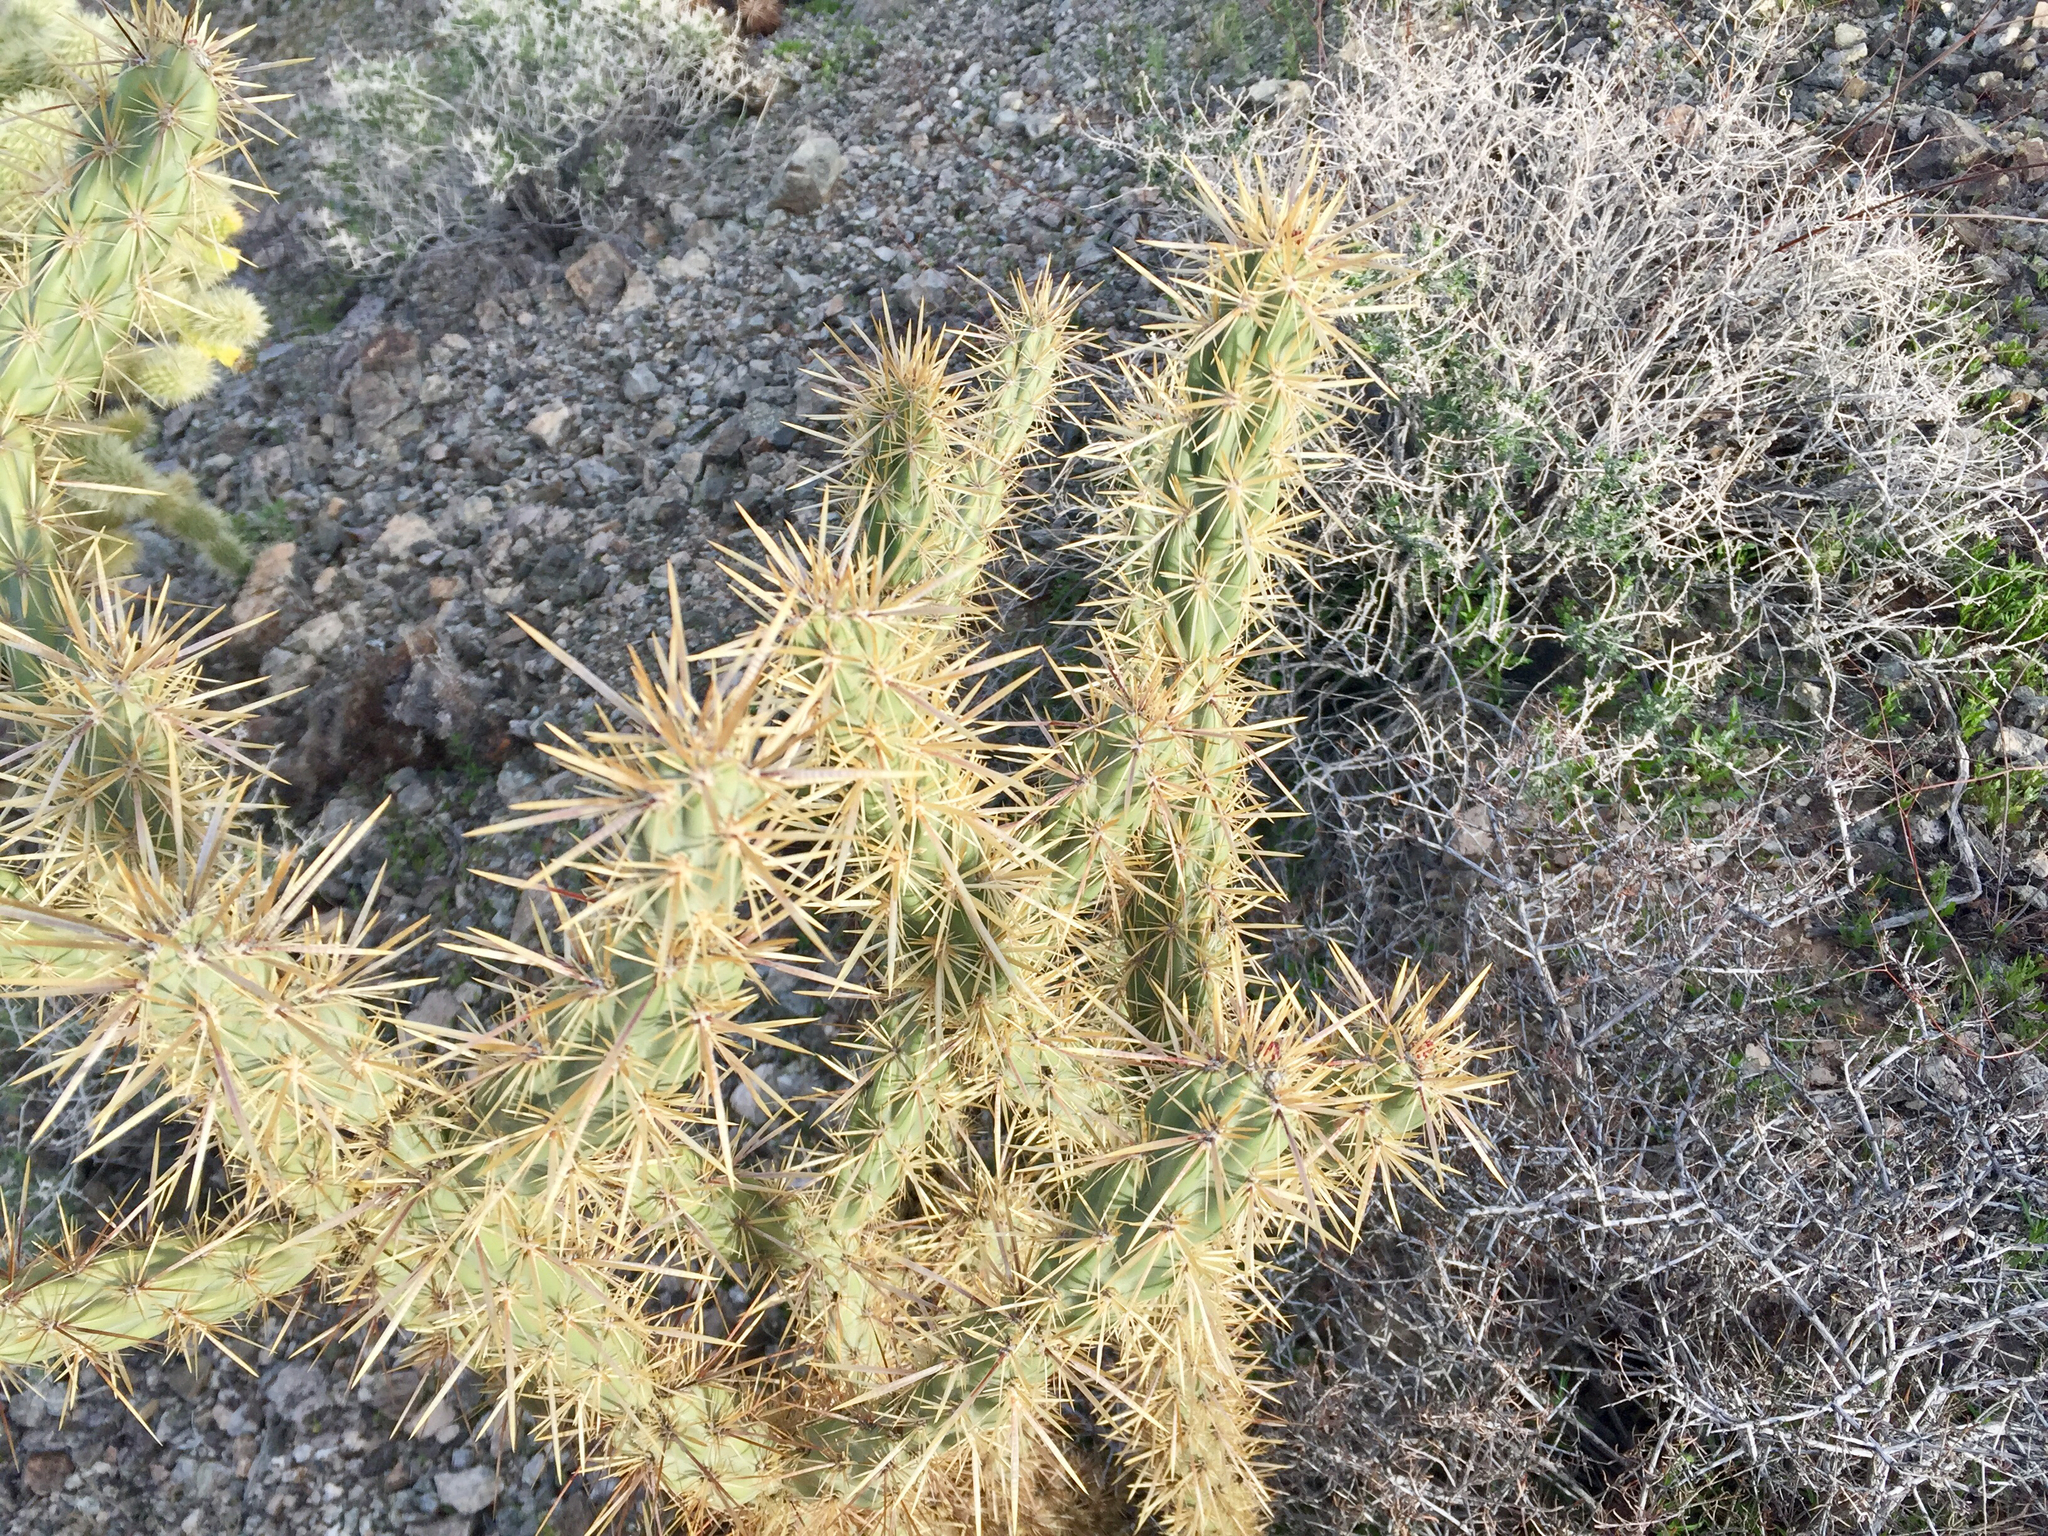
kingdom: Plantae
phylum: Tracheophyta
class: Magnoliopsida
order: Caryophyllales
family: Cactaceae
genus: Cylindropuntia
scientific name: Cylindropuntia acanthocarpa
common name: Buckhorn cholla
